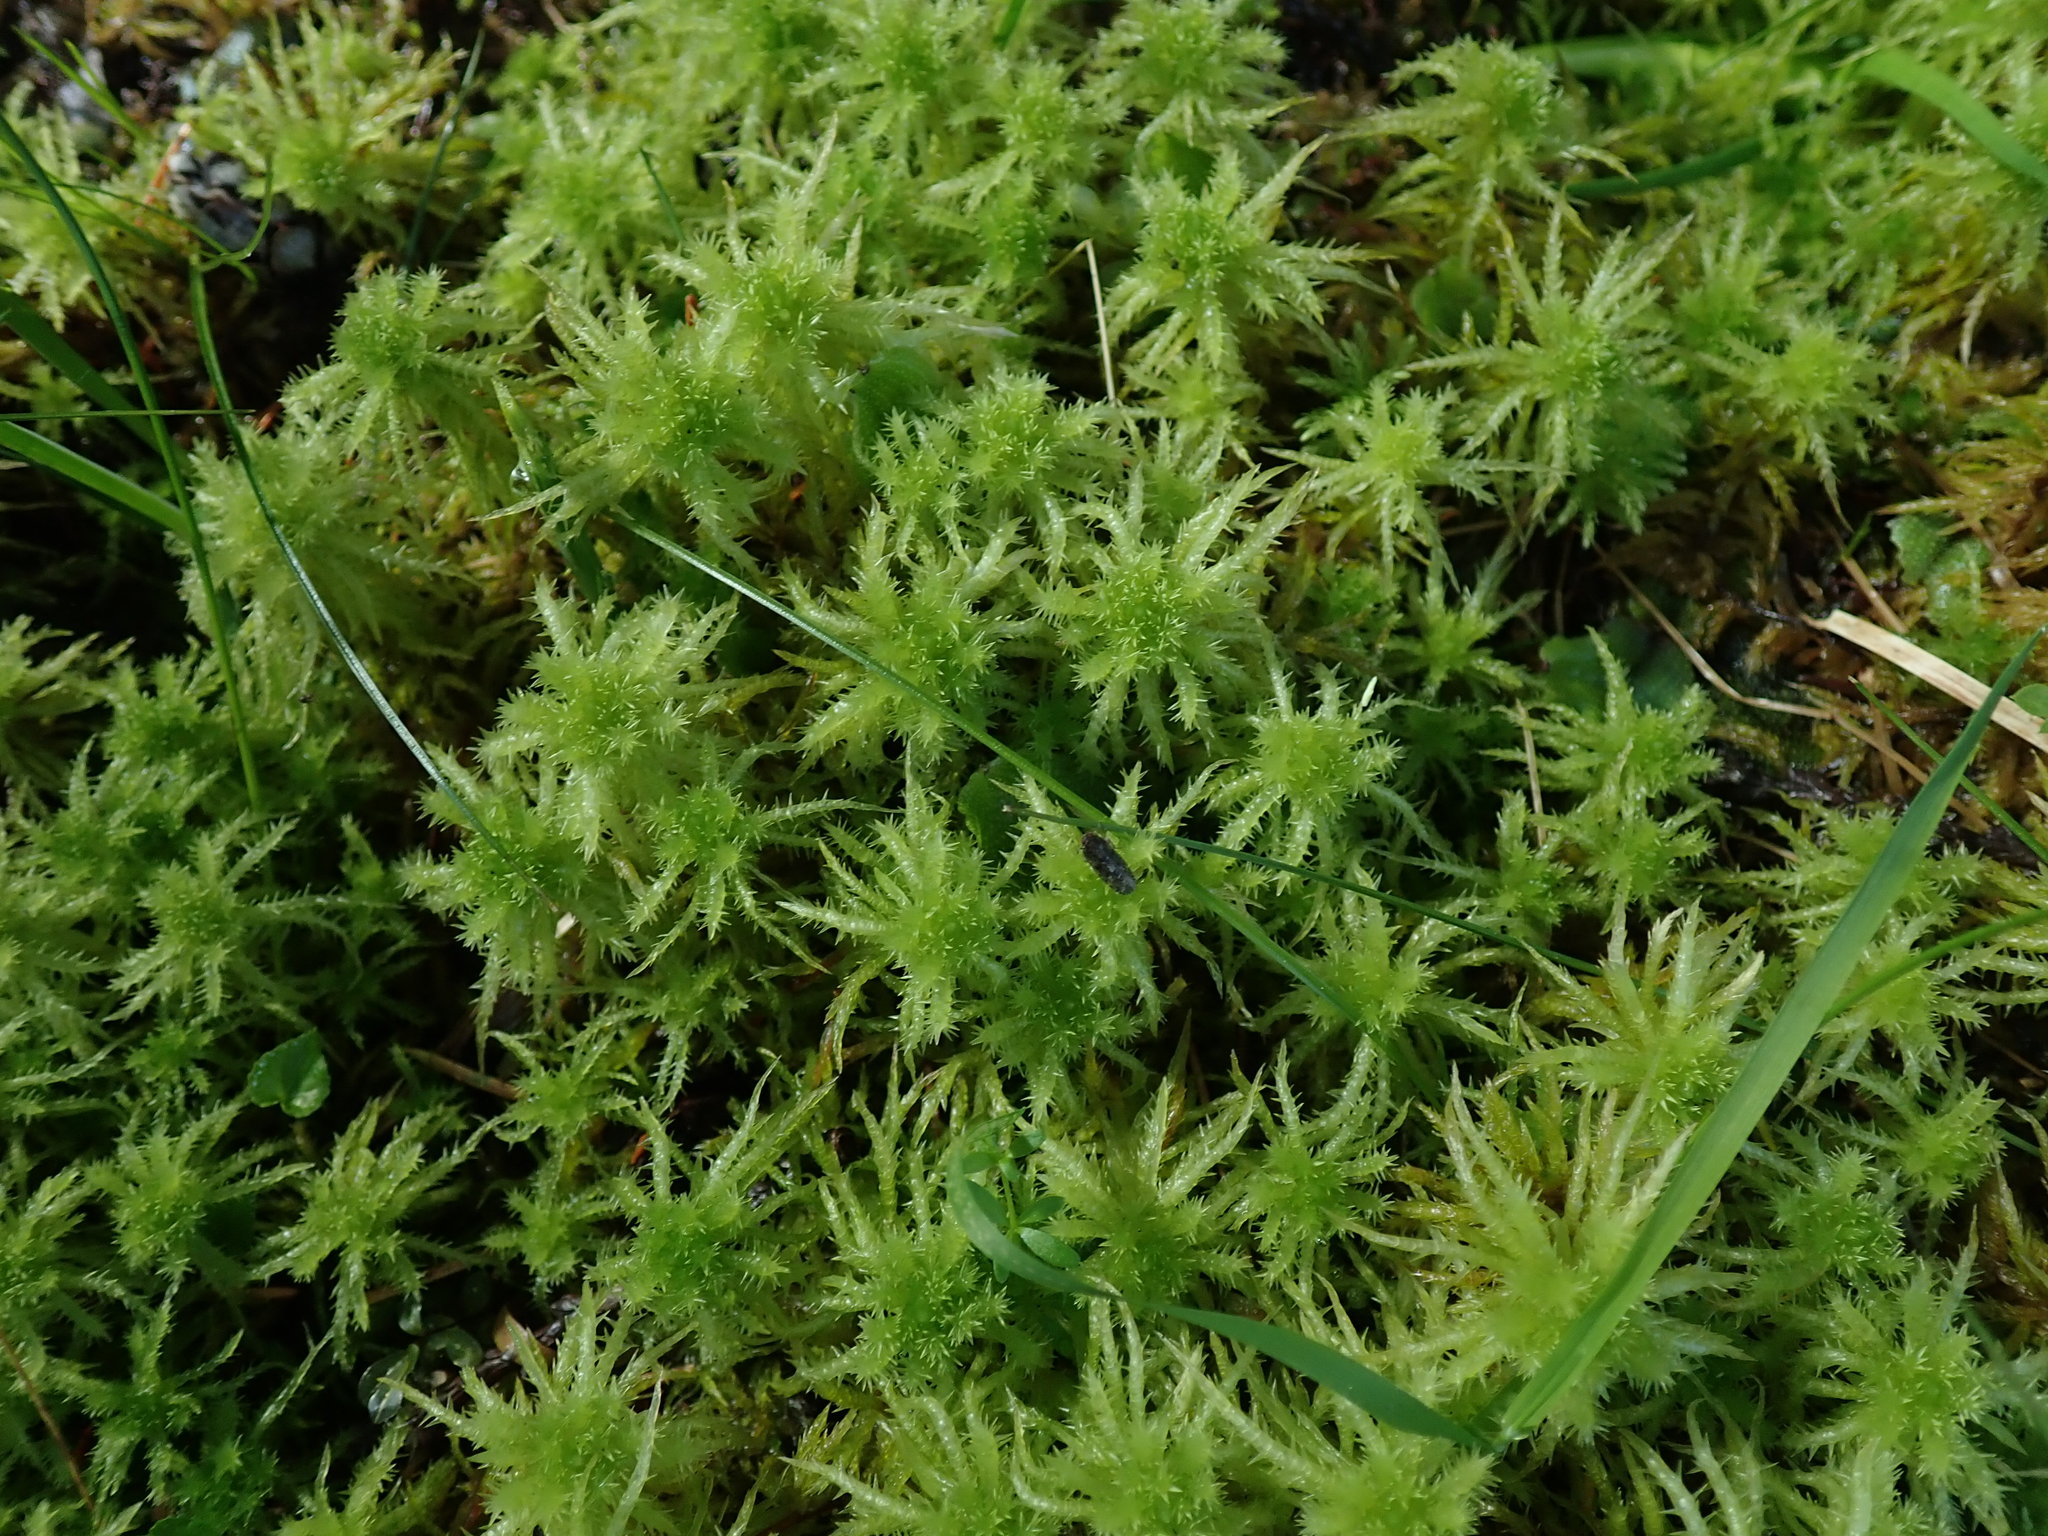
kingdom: Plantae
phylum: Bryophyta
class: Sphagnopsida
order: Sphagnales
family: Sphagnaceae
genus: Sphagnum
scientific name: Sphagnum squarrosum
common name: Shaggy peat moss
